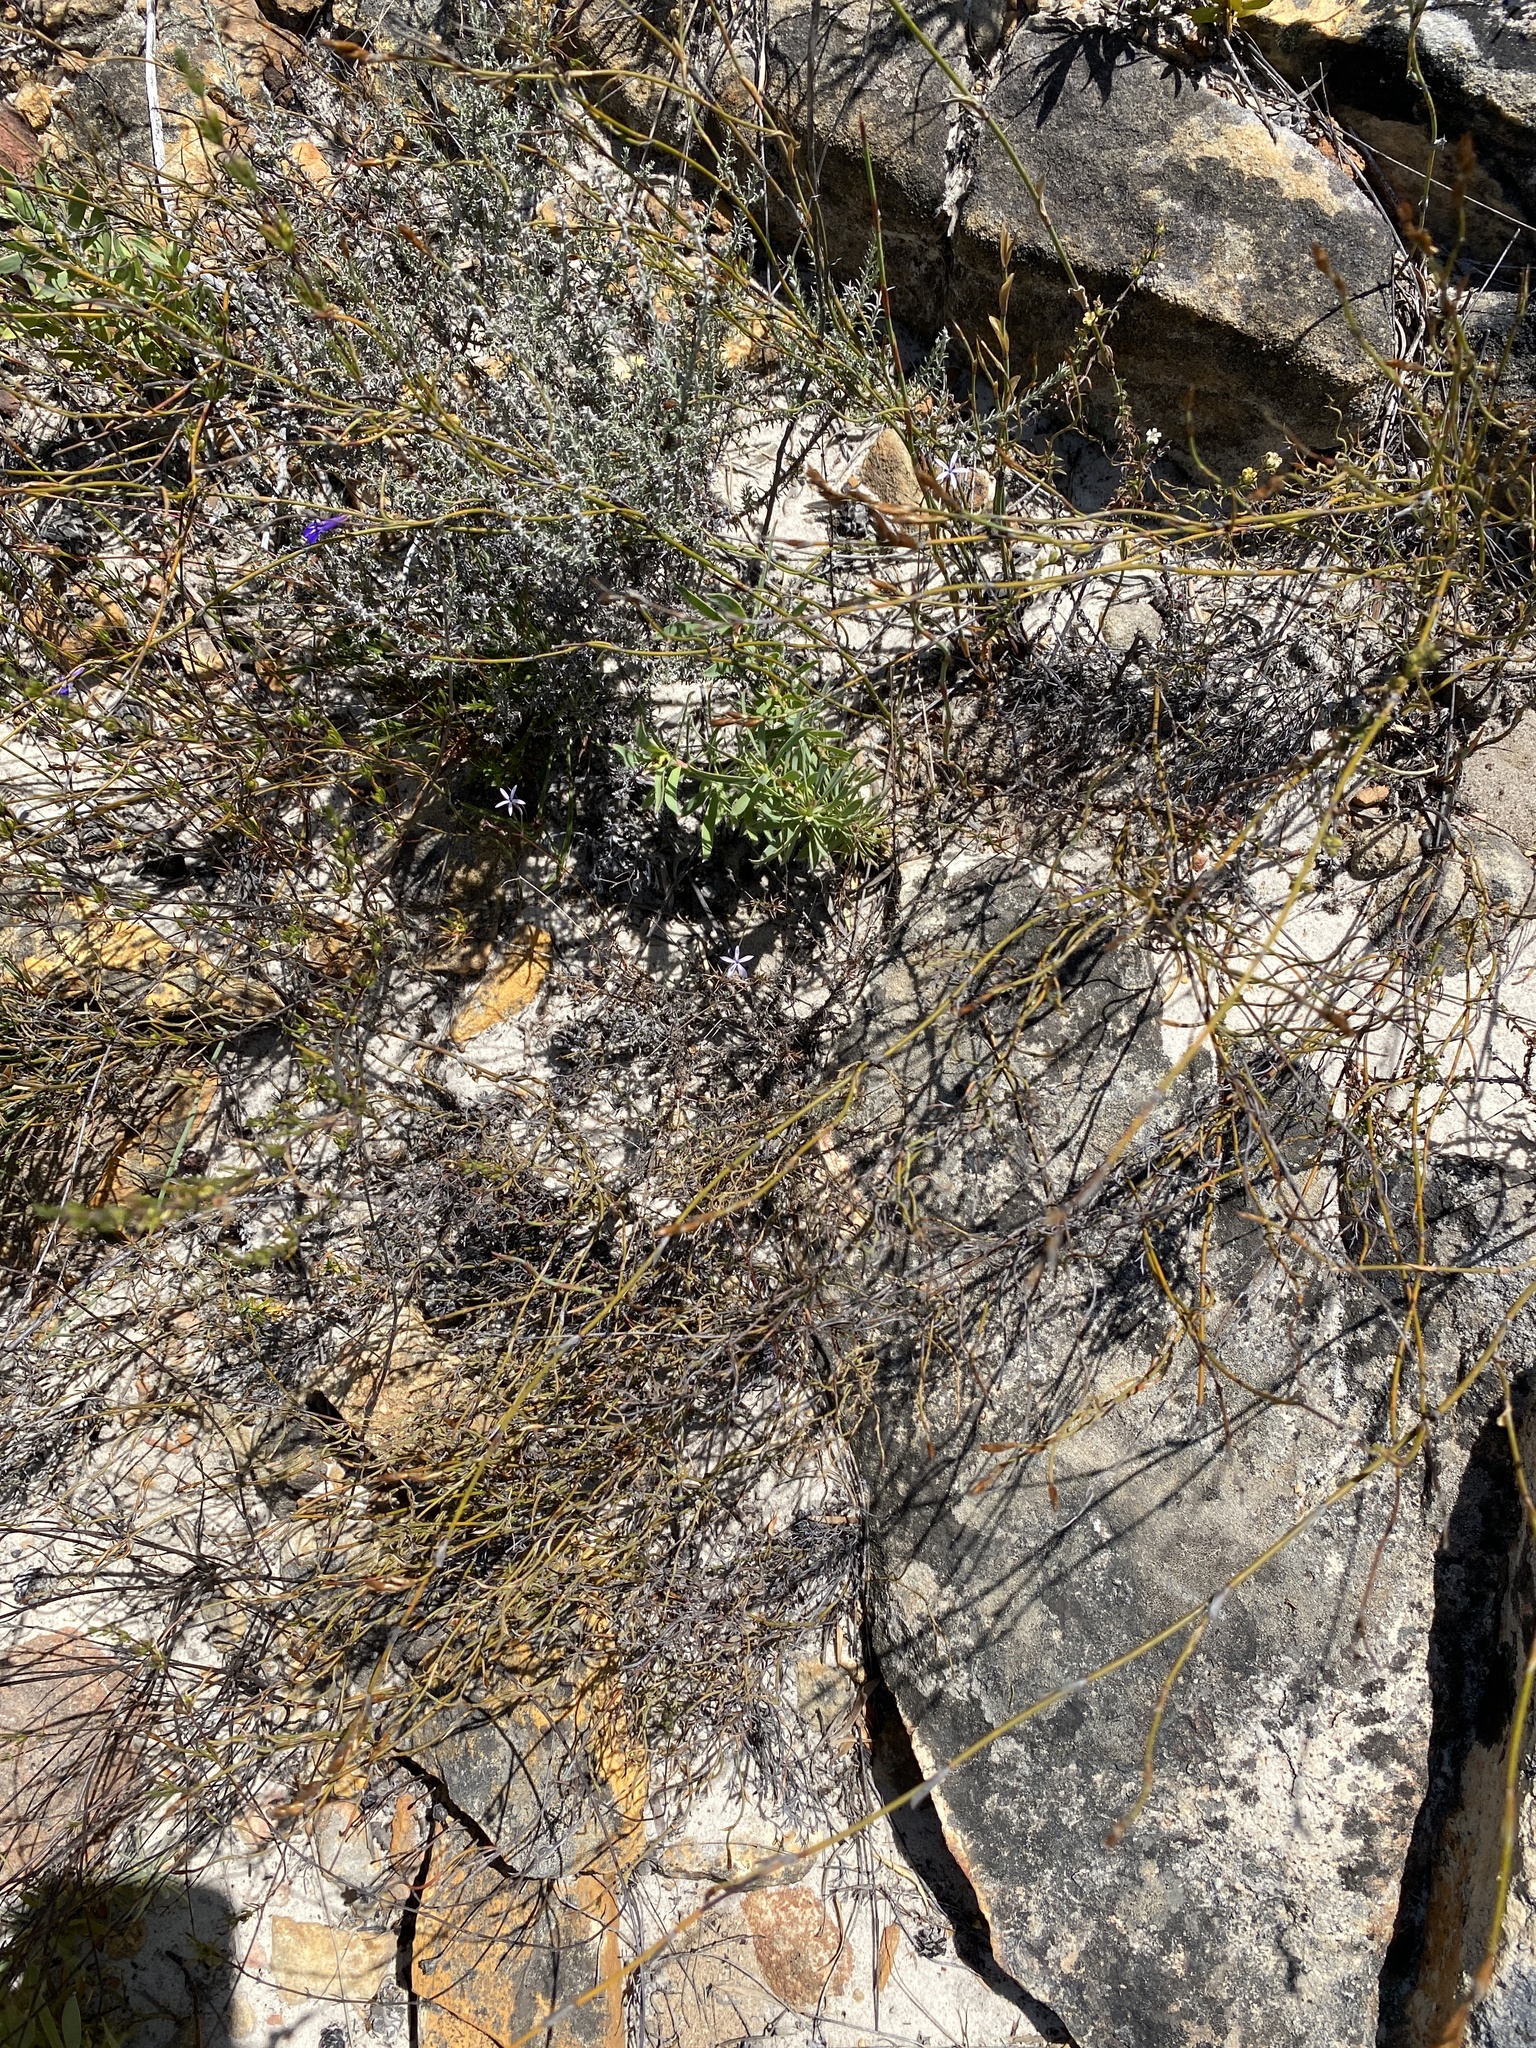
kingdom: Plantae
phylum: Tracheophyta
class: Magnoliopsida
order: Proteales
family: Proteaceae
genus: Protea
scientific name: Protea laevis
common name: Smooth-leaf sugarbush
